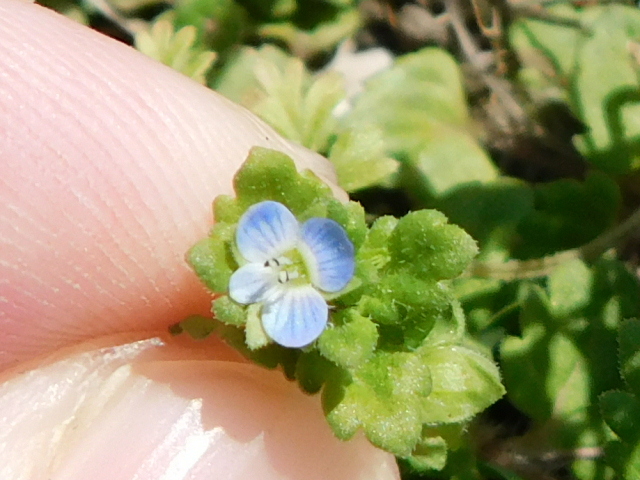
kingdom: Plantae
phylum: Tracheophyta
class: Magnoliopsida
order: Lamiales
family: Plantaginaceae
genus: Veronica
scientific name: Veronica polita
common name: Grey field-speedwell
